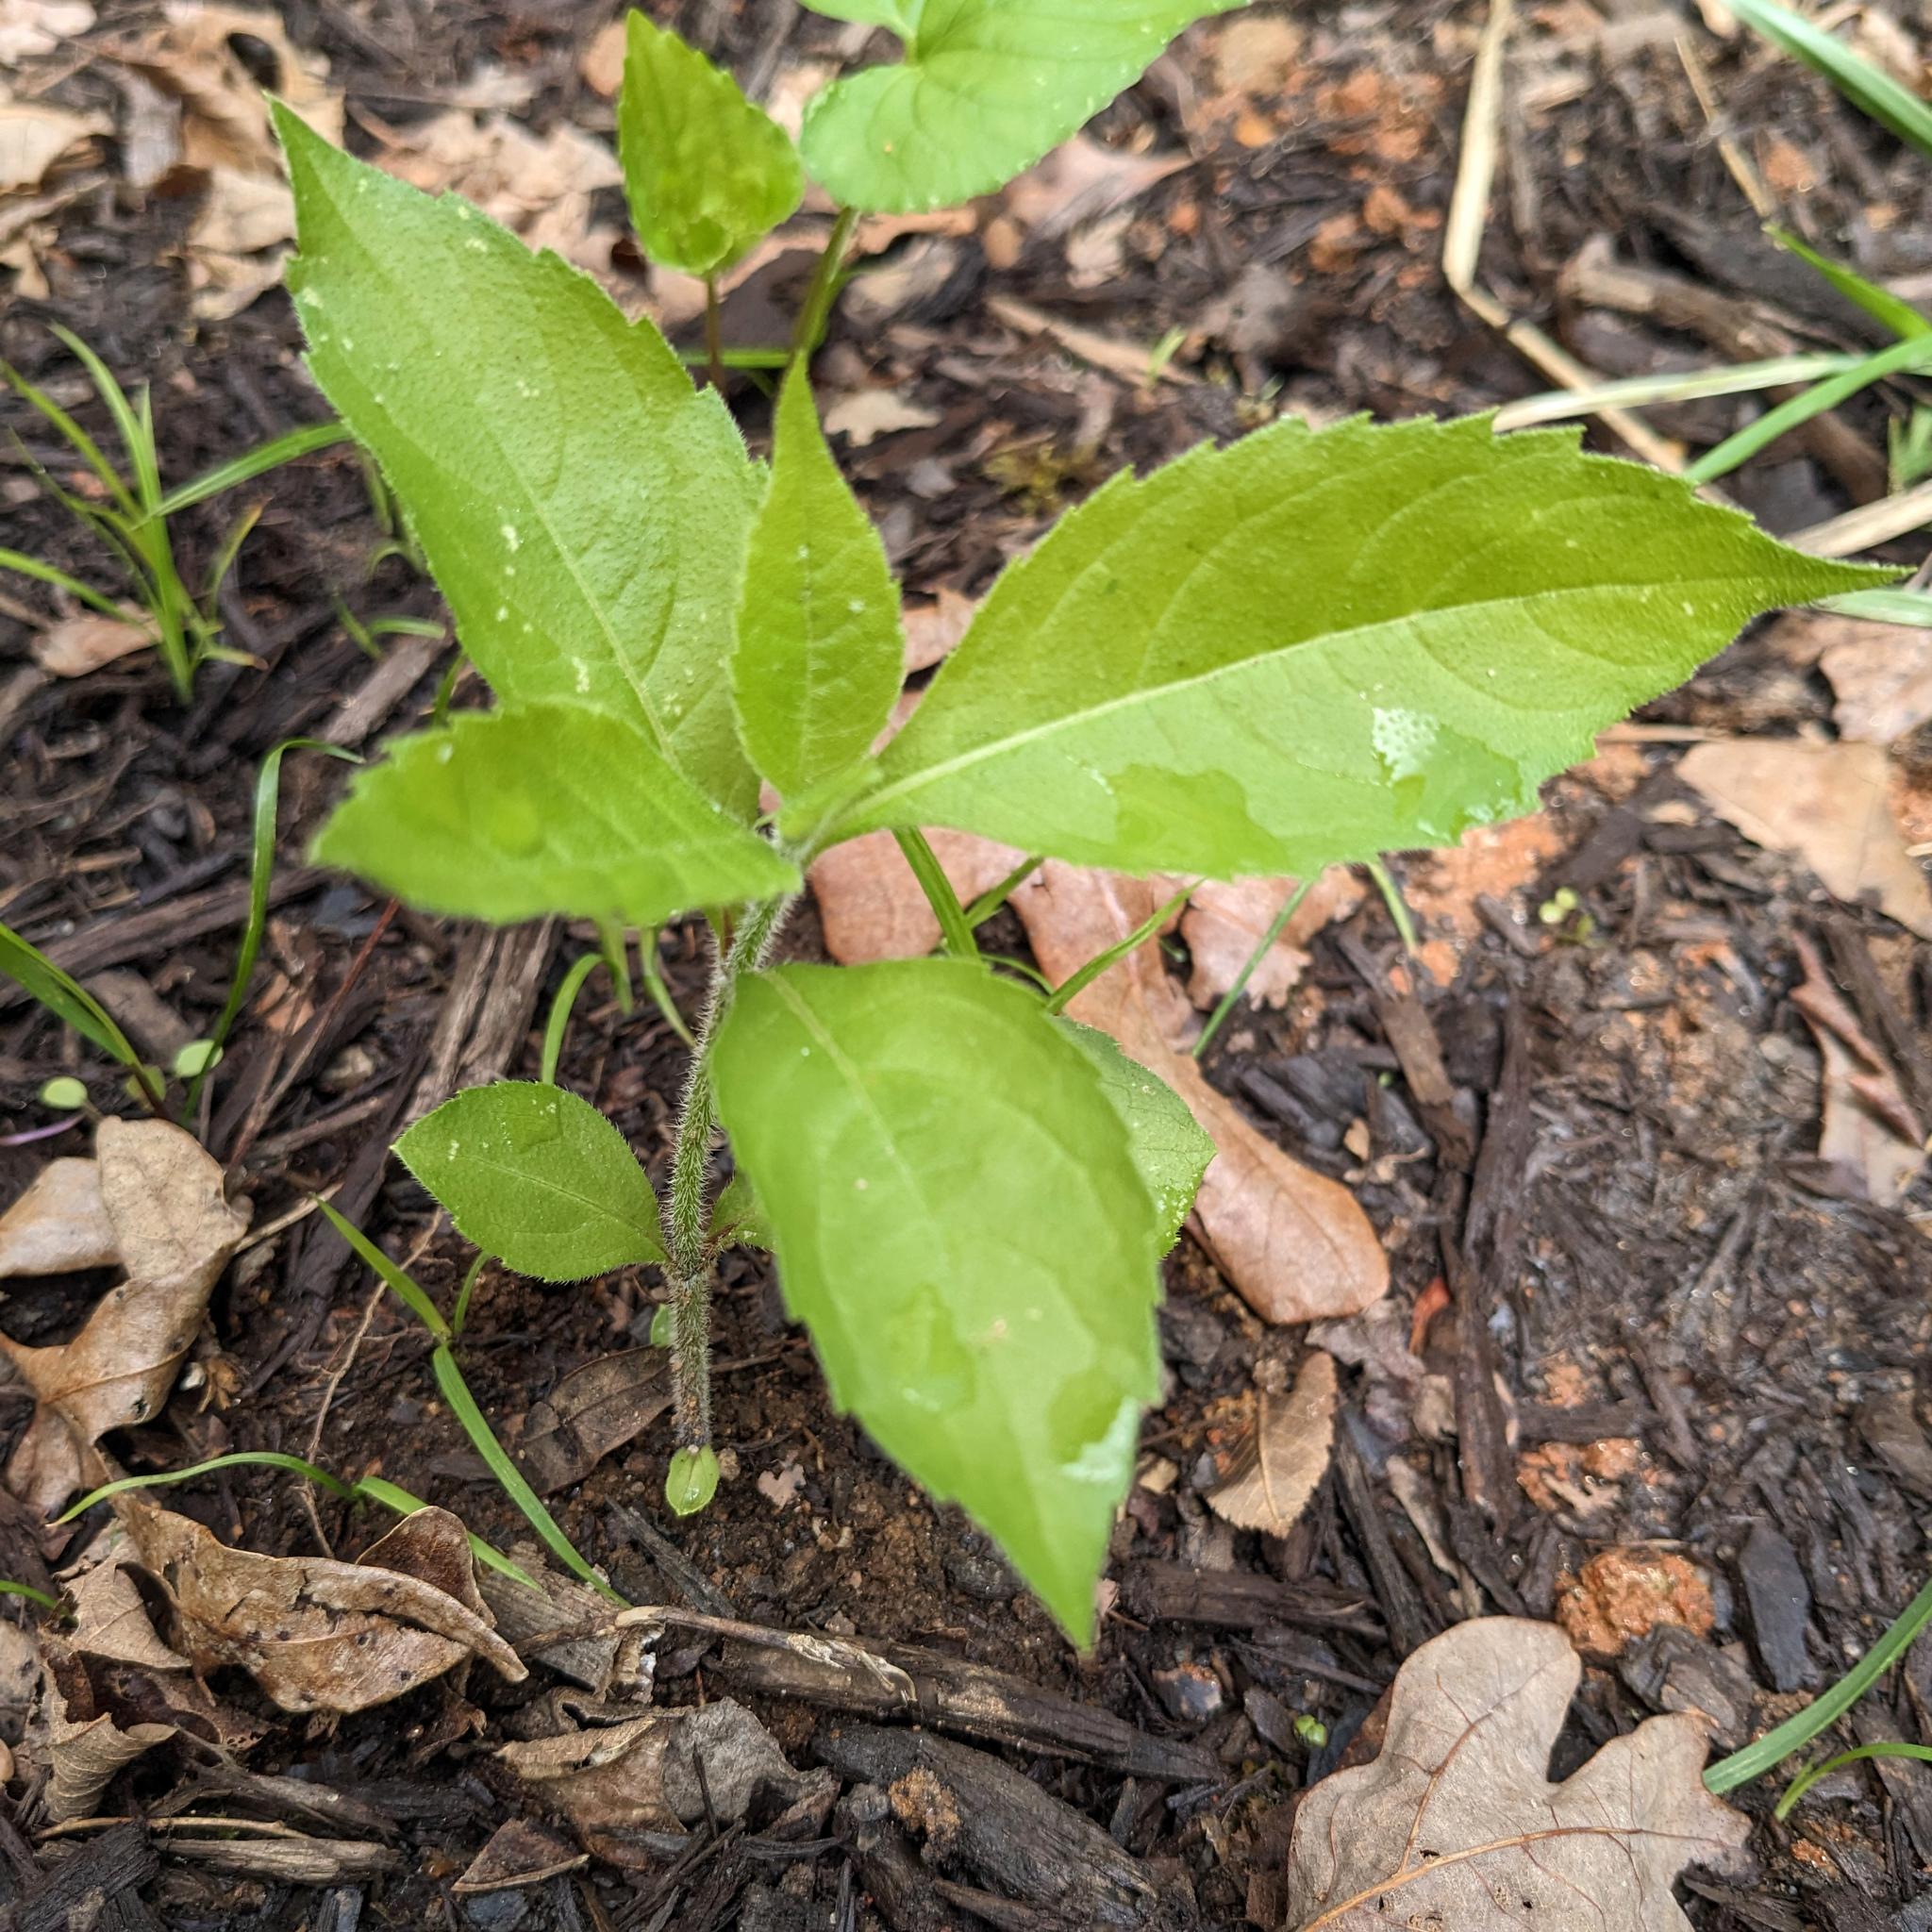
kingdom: Plantae
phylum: Tracheophyta
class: Magnoliopsida
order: Asterales
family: Asteraceae
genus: Verbesina
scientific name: Verbesina alternifolia
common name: Wingstem
